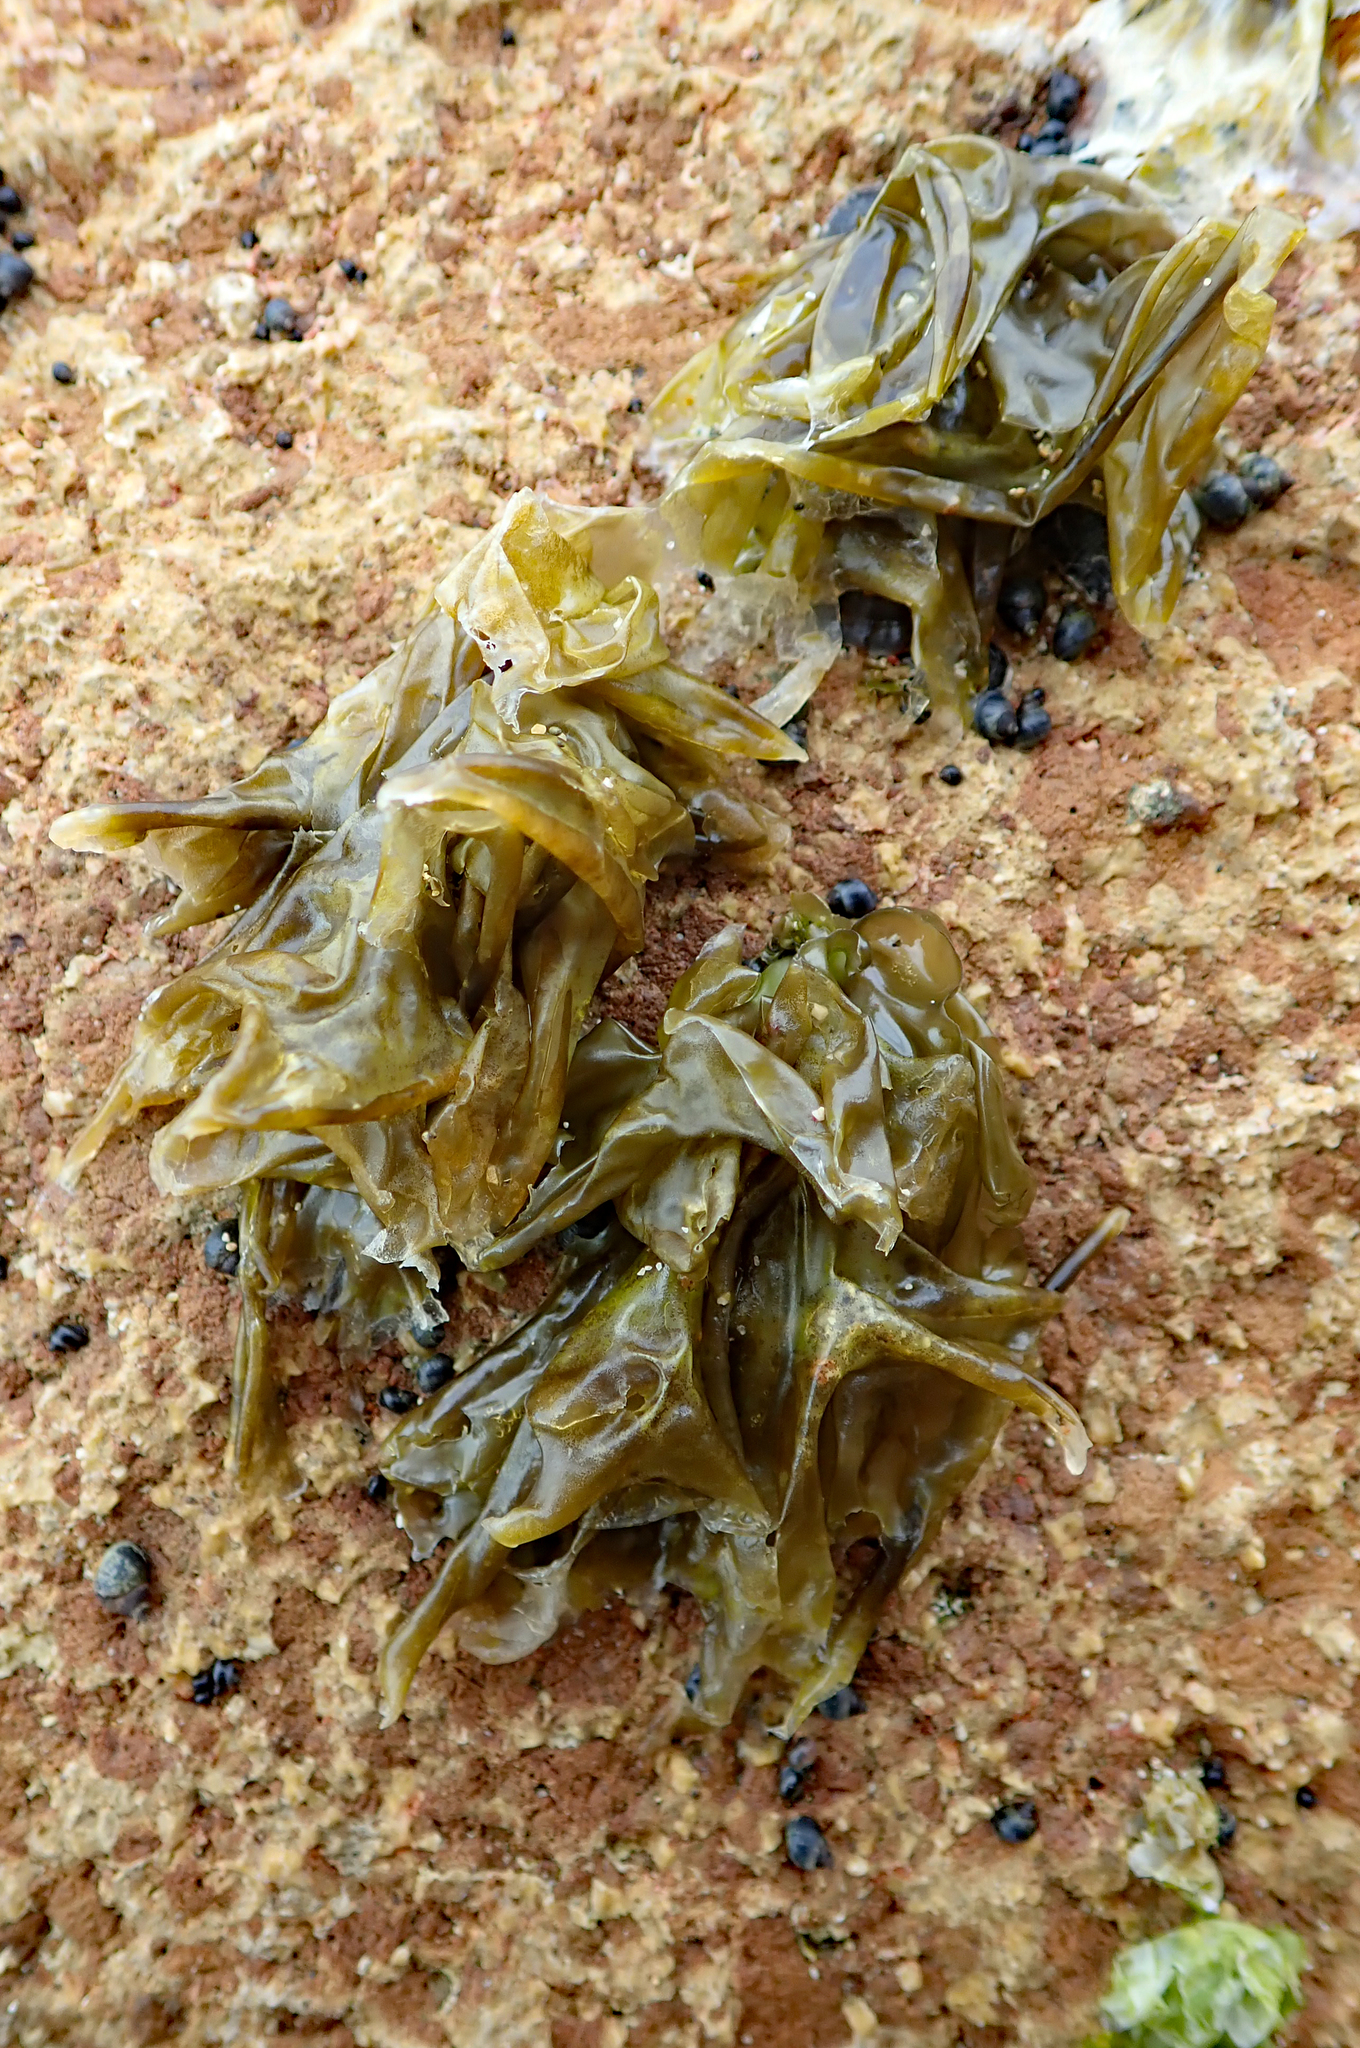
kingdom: Plantae
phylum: Rhodophyta
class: Bangiophyceae
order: Bangiales
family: Bangiaceae
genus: Clymene
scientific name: Clymene coleana
